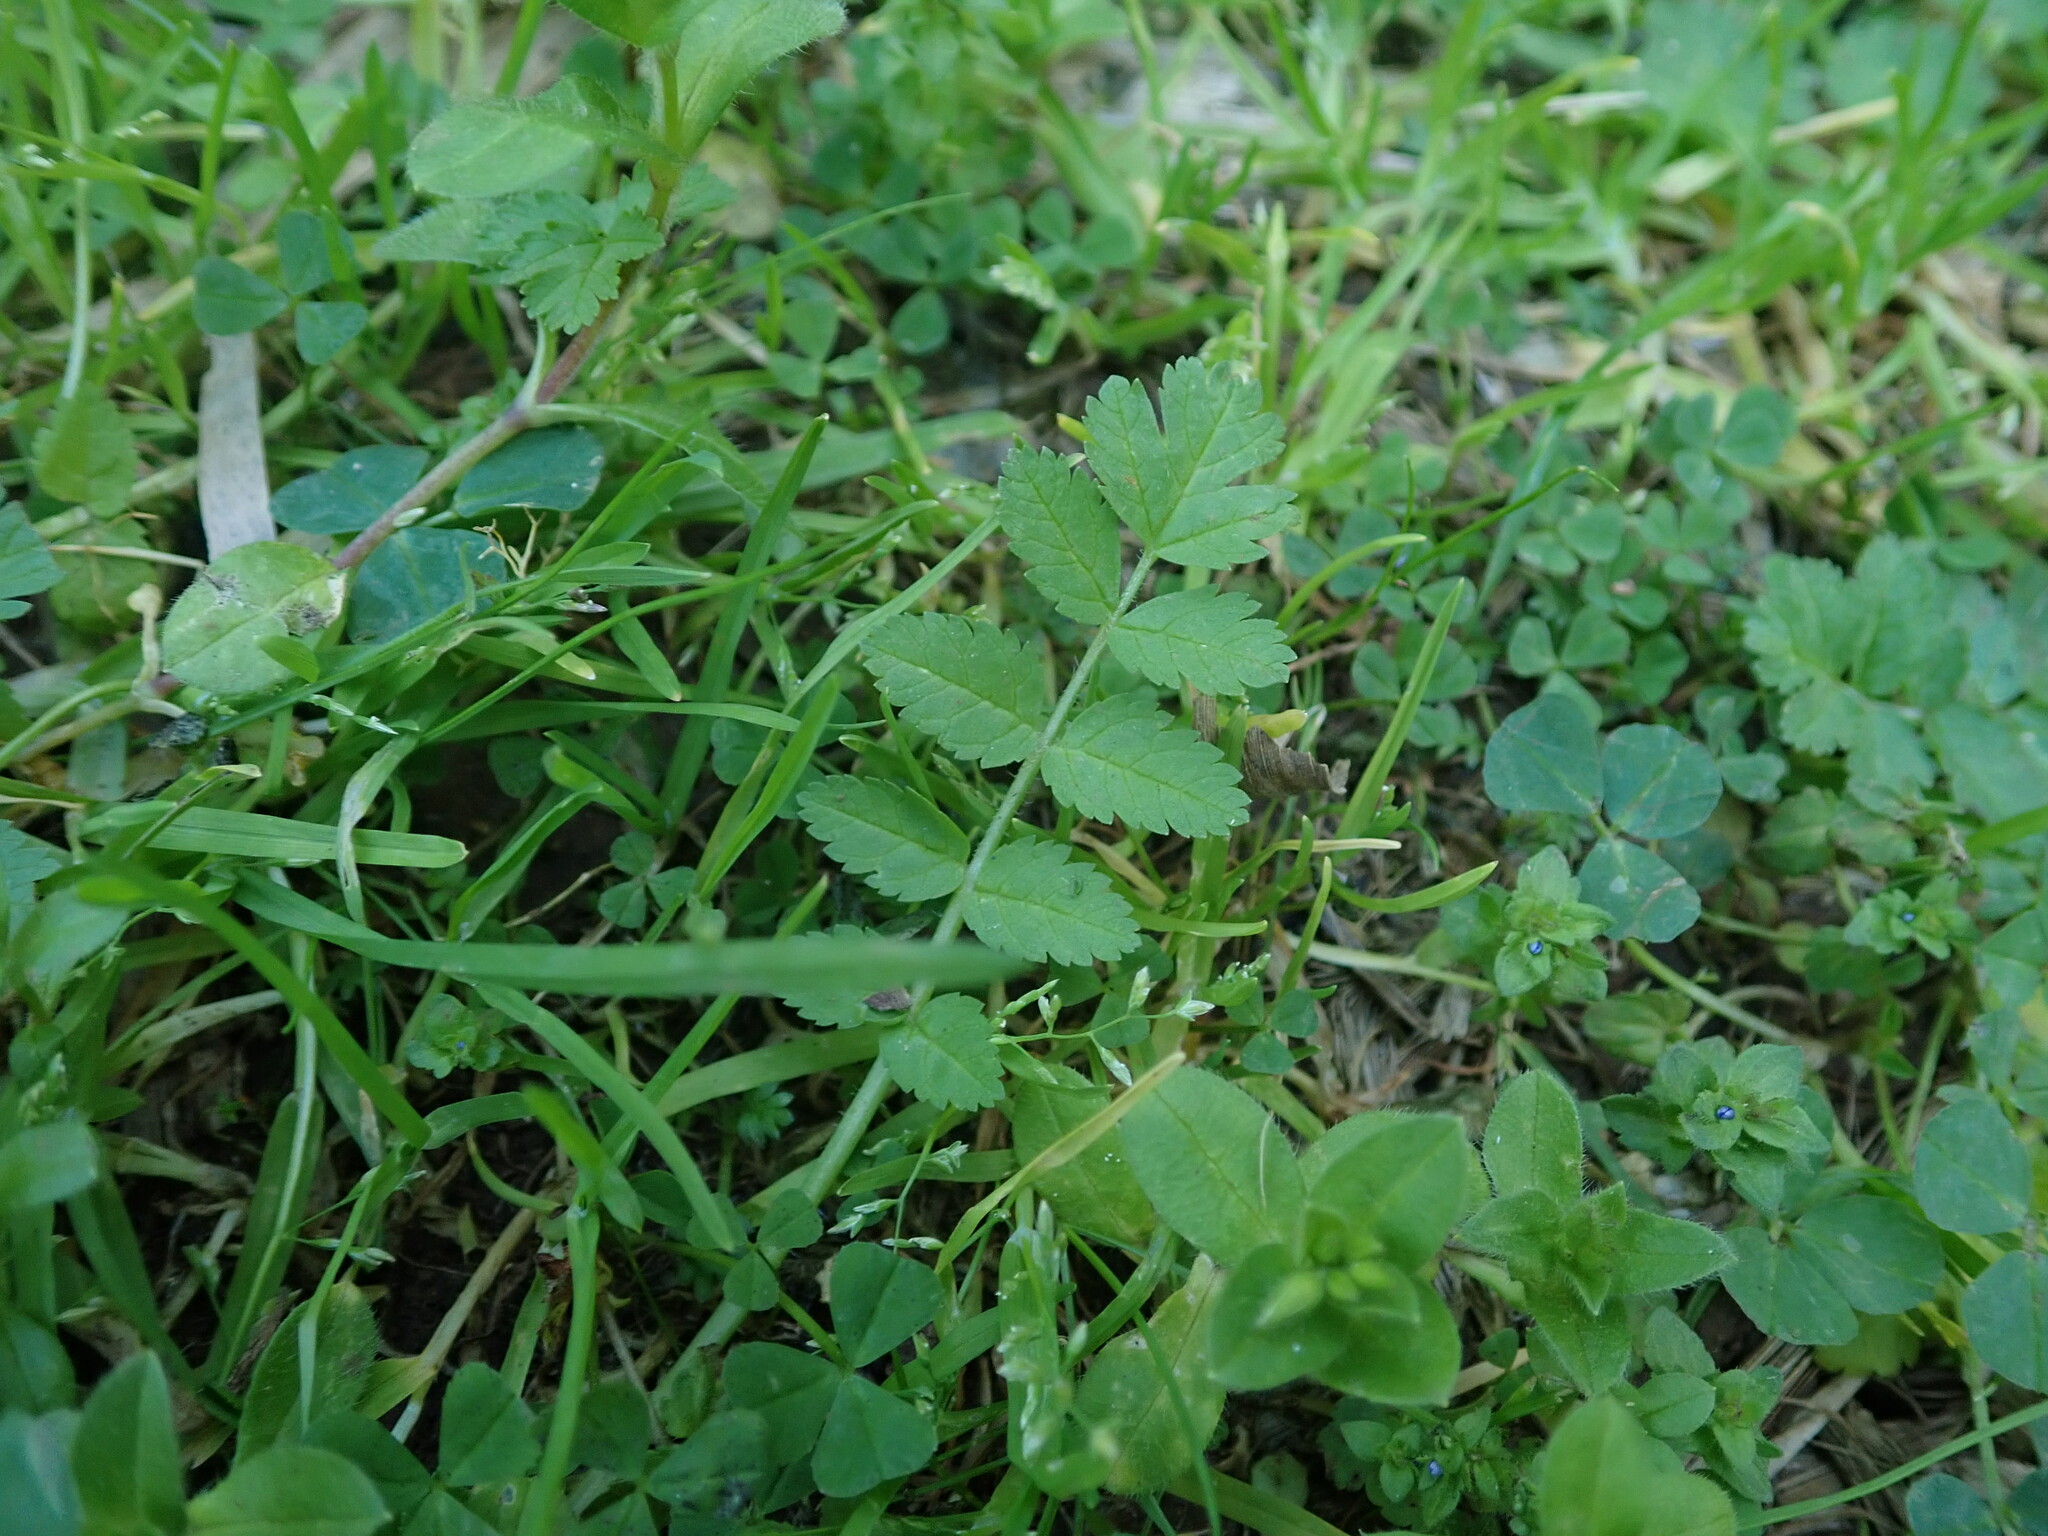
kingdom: Plantae
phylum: Tracheophyta
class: Magnoliopsida
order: Geraniales
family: Geraniaceae
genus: Erodium
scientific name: Erodium moschatum
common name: Musk stork's-bill
